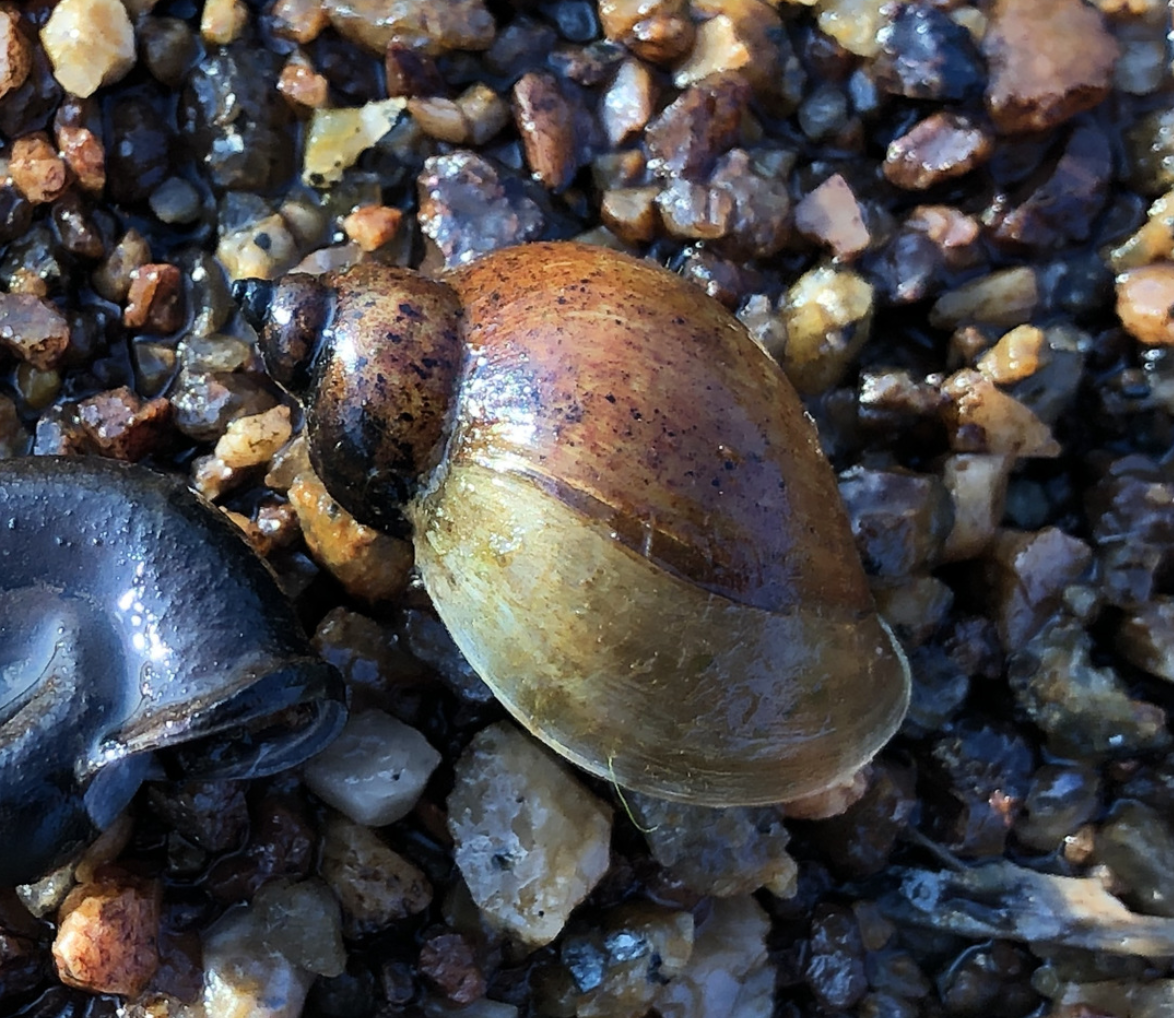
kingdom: Animalia
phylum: Mollusca
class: Gastropoda
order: Stylommatophora
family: Succineidae
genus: Novisuccinea
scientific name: Novisuccinea strigata
